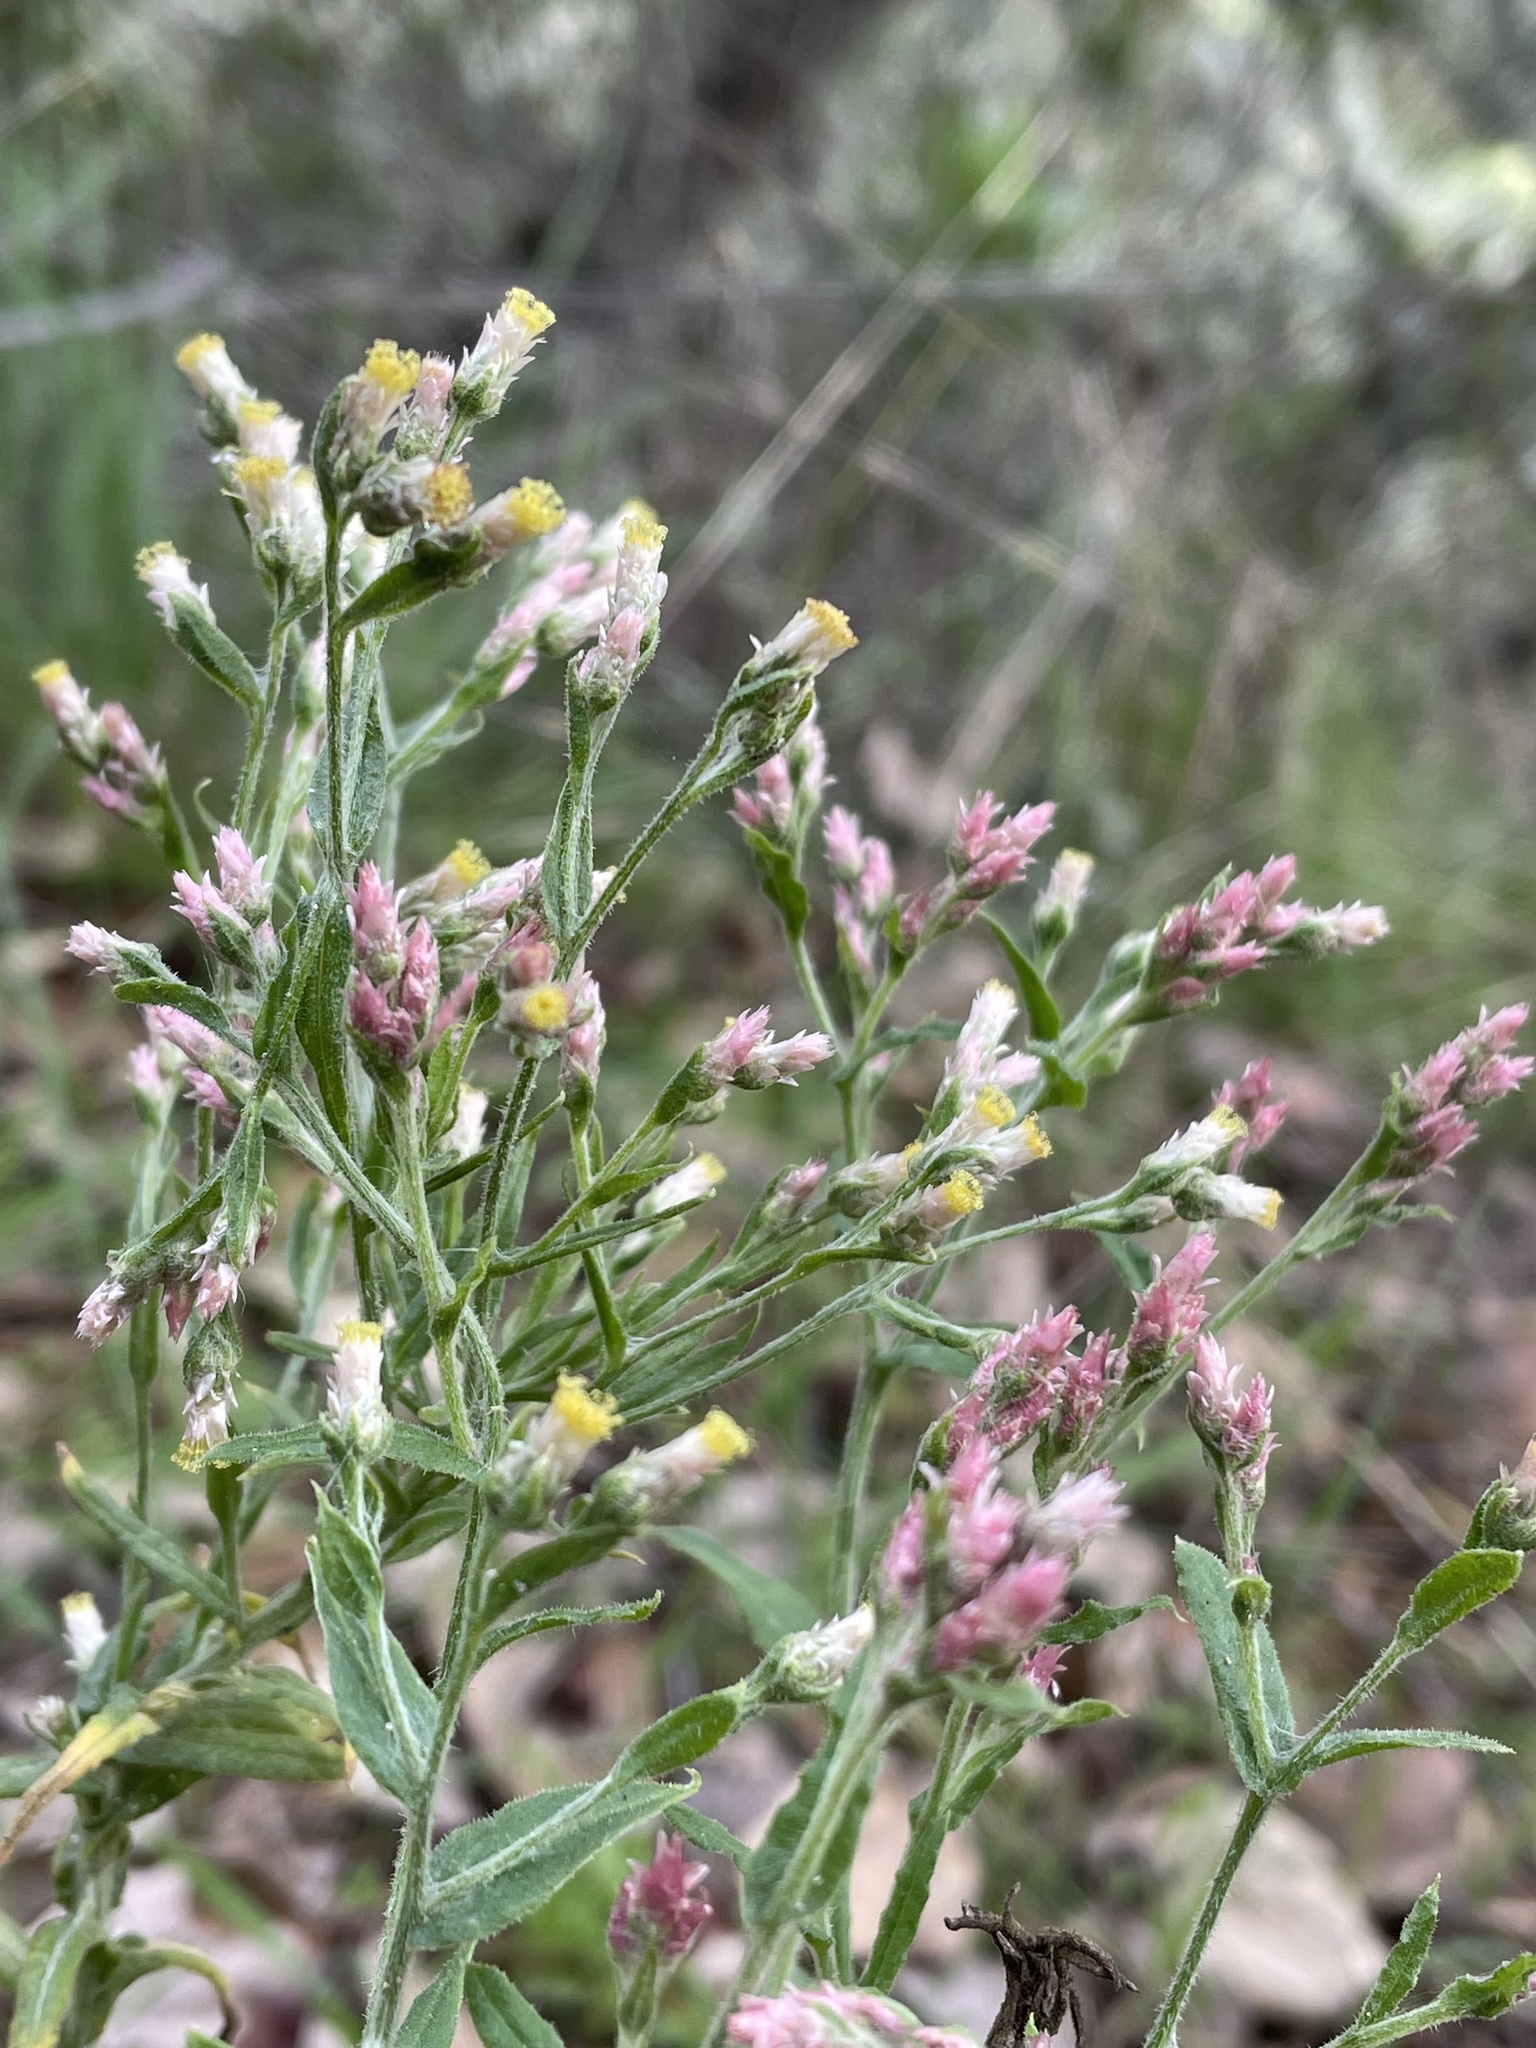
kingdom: Plantae
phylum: Tracheophyta
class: Magnoliopsida
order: Asterales
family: Asteraceae
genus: Pseudognaphalium
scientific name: Pseudognaphalium ramosissimum
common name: Pink rabbit-tobacco
